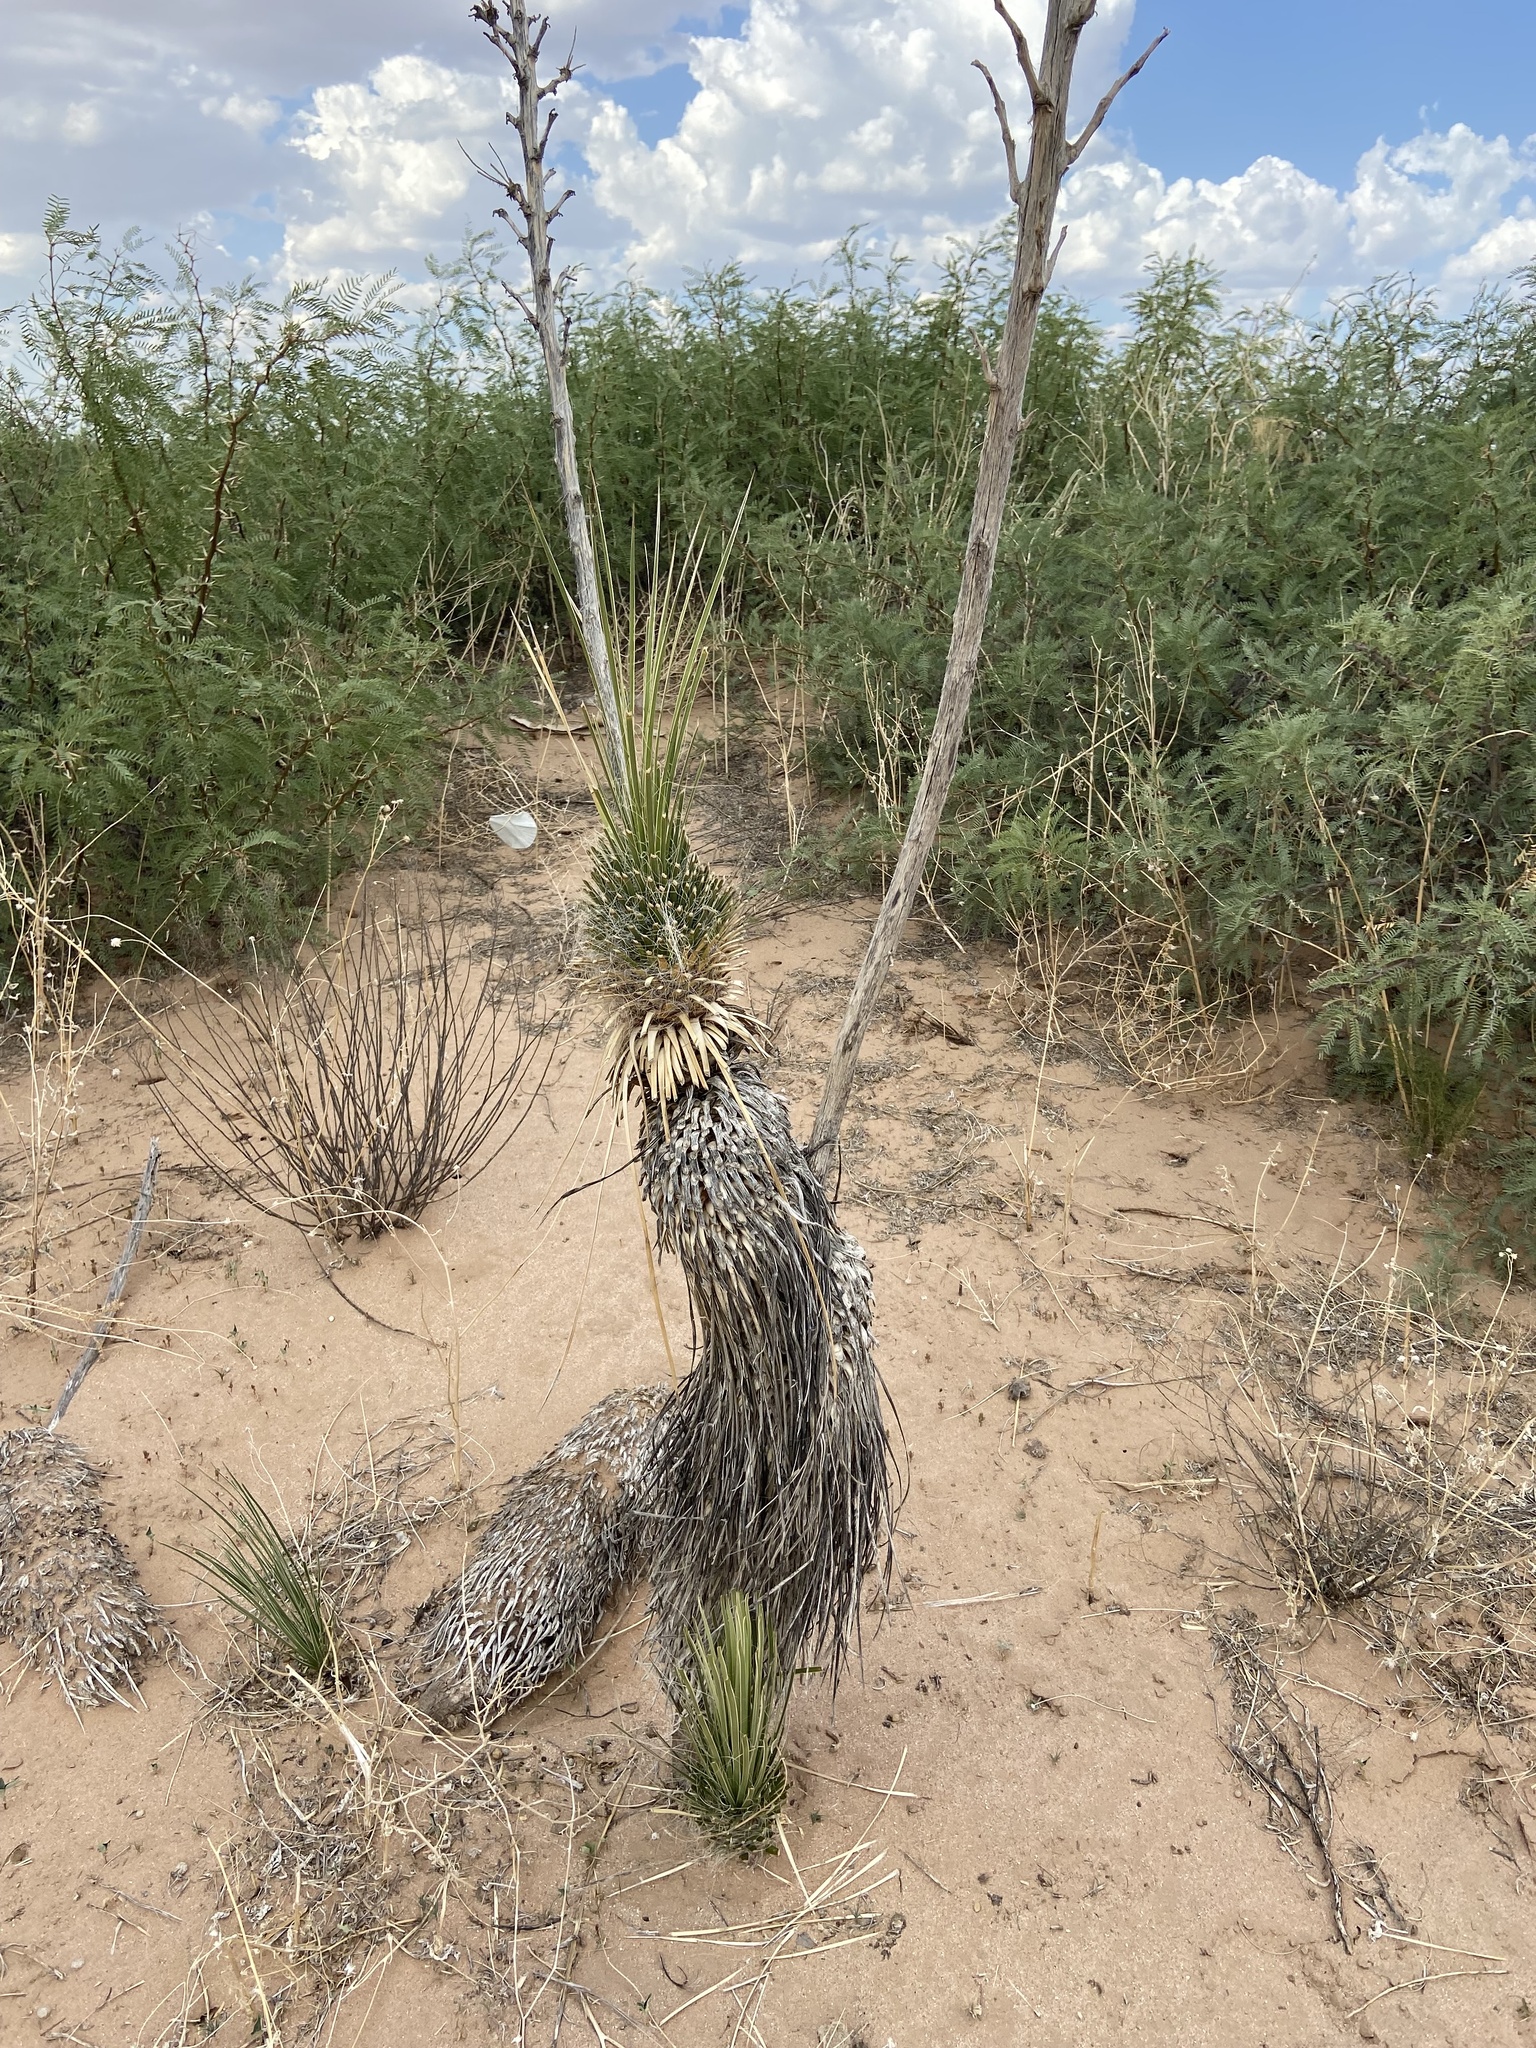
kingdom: Plantae
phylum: Tracheophyta
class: Liliopsida
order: Asparagales
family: Asparagaceae
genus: Yucca
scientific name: Yucca elata
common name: Palmella
